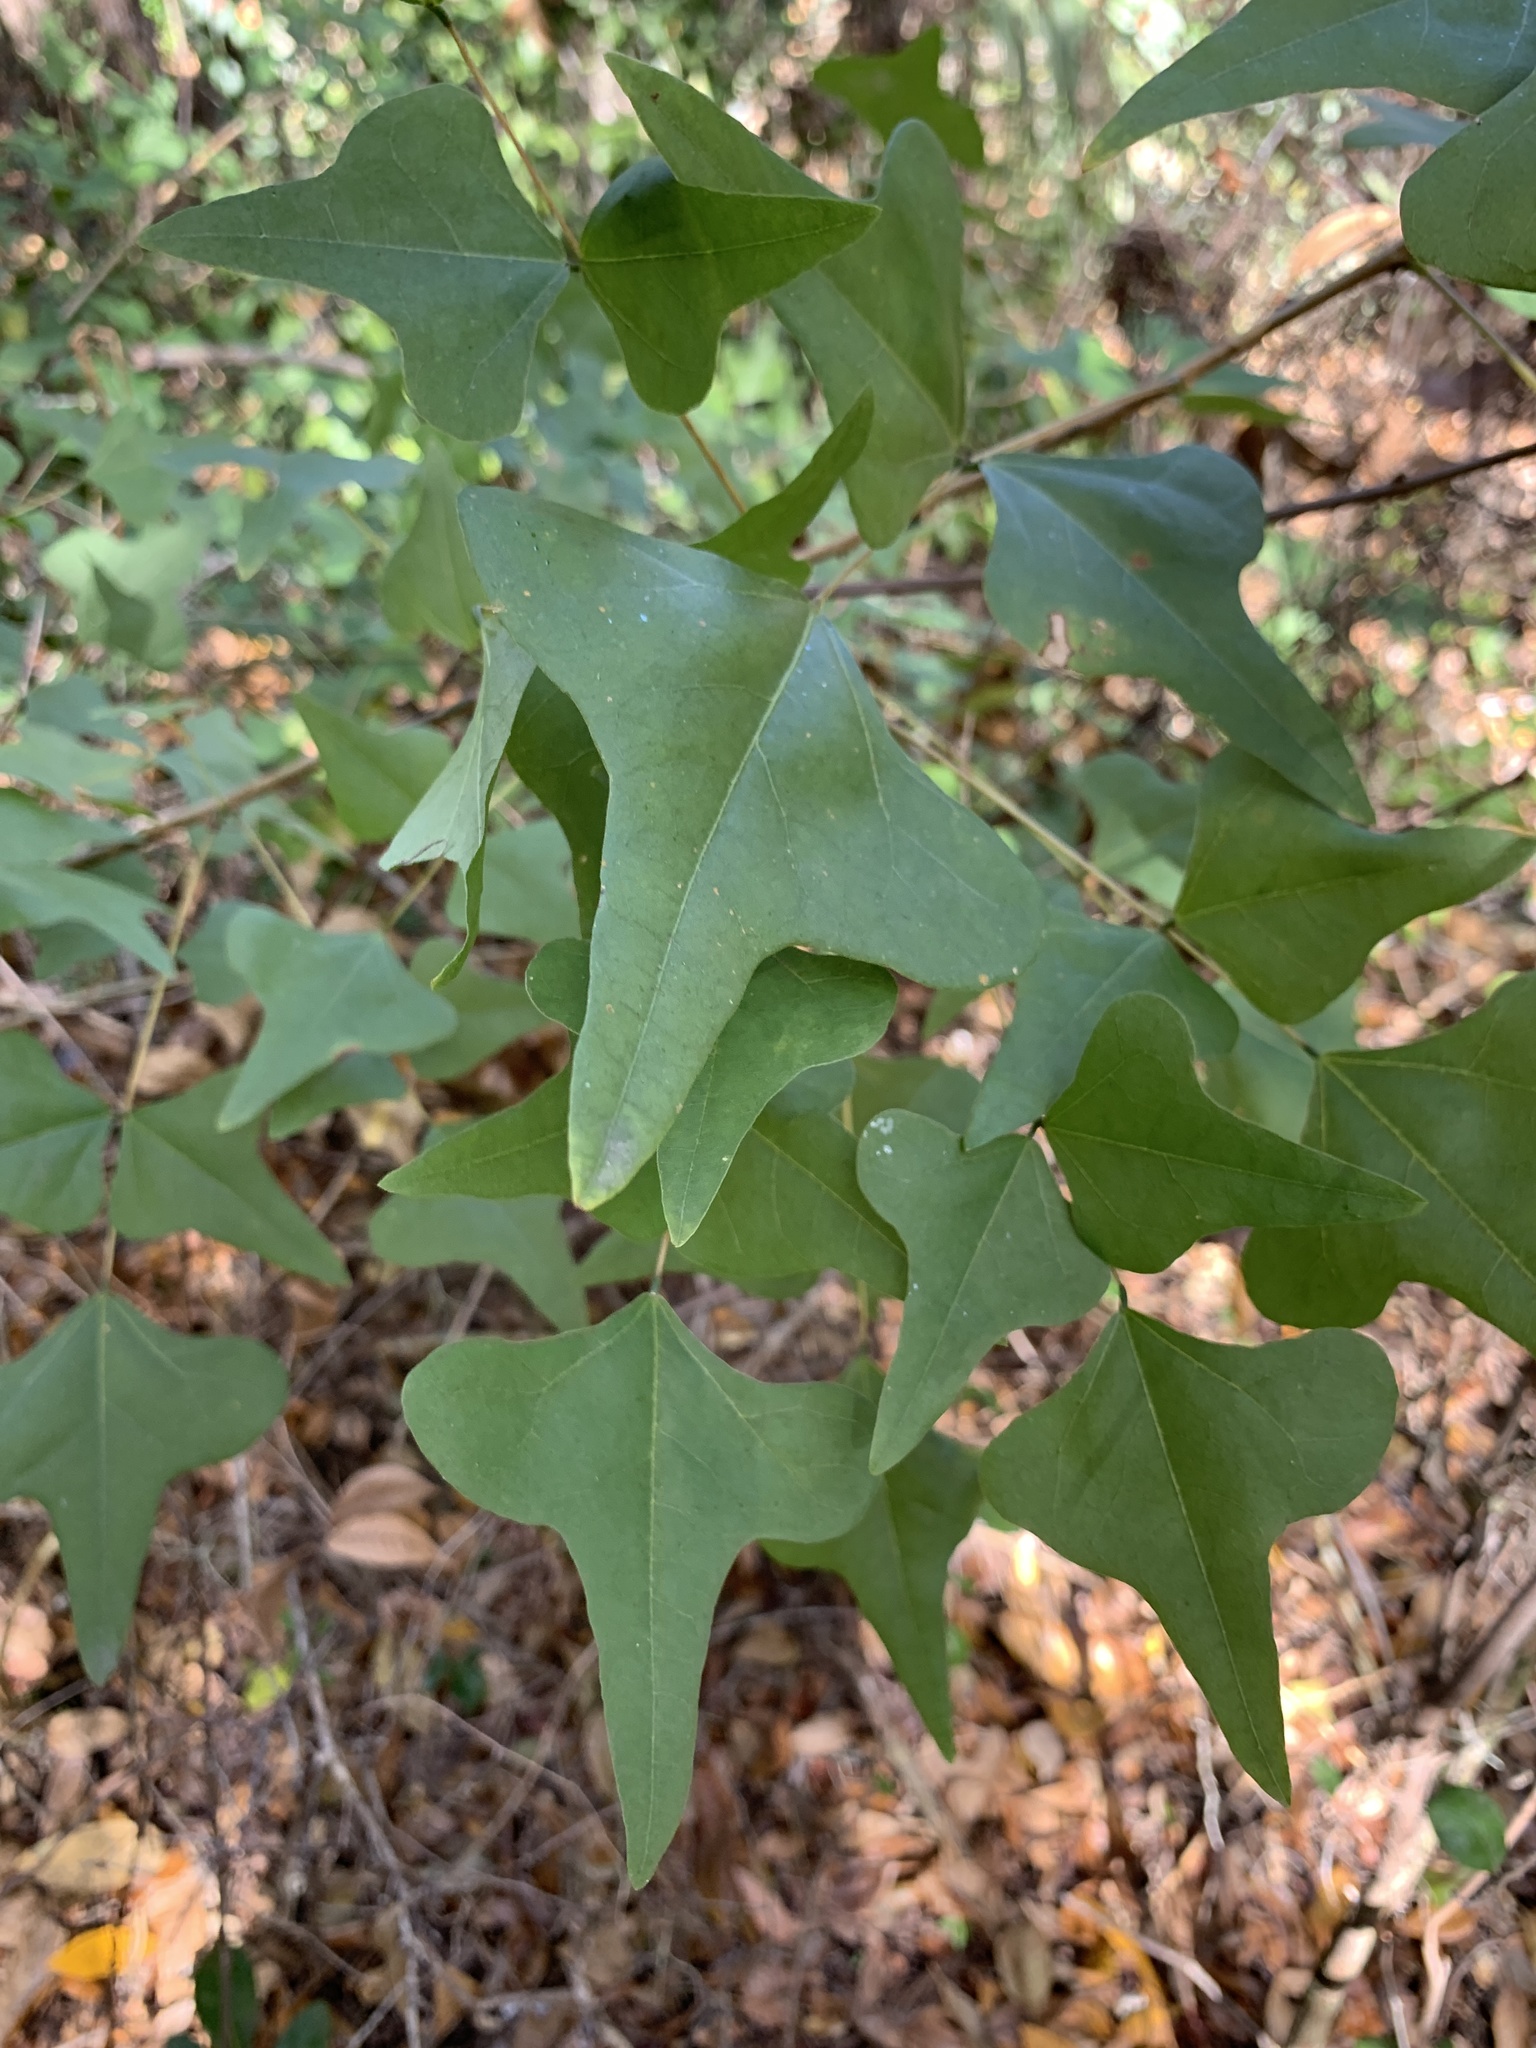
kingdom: Plantae
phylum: Tracheophyta
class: Magnoliopsida
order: Fabales
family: Fabaceae
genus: Erythrina
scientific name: Erythrina herbacea
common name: Coral-bean
